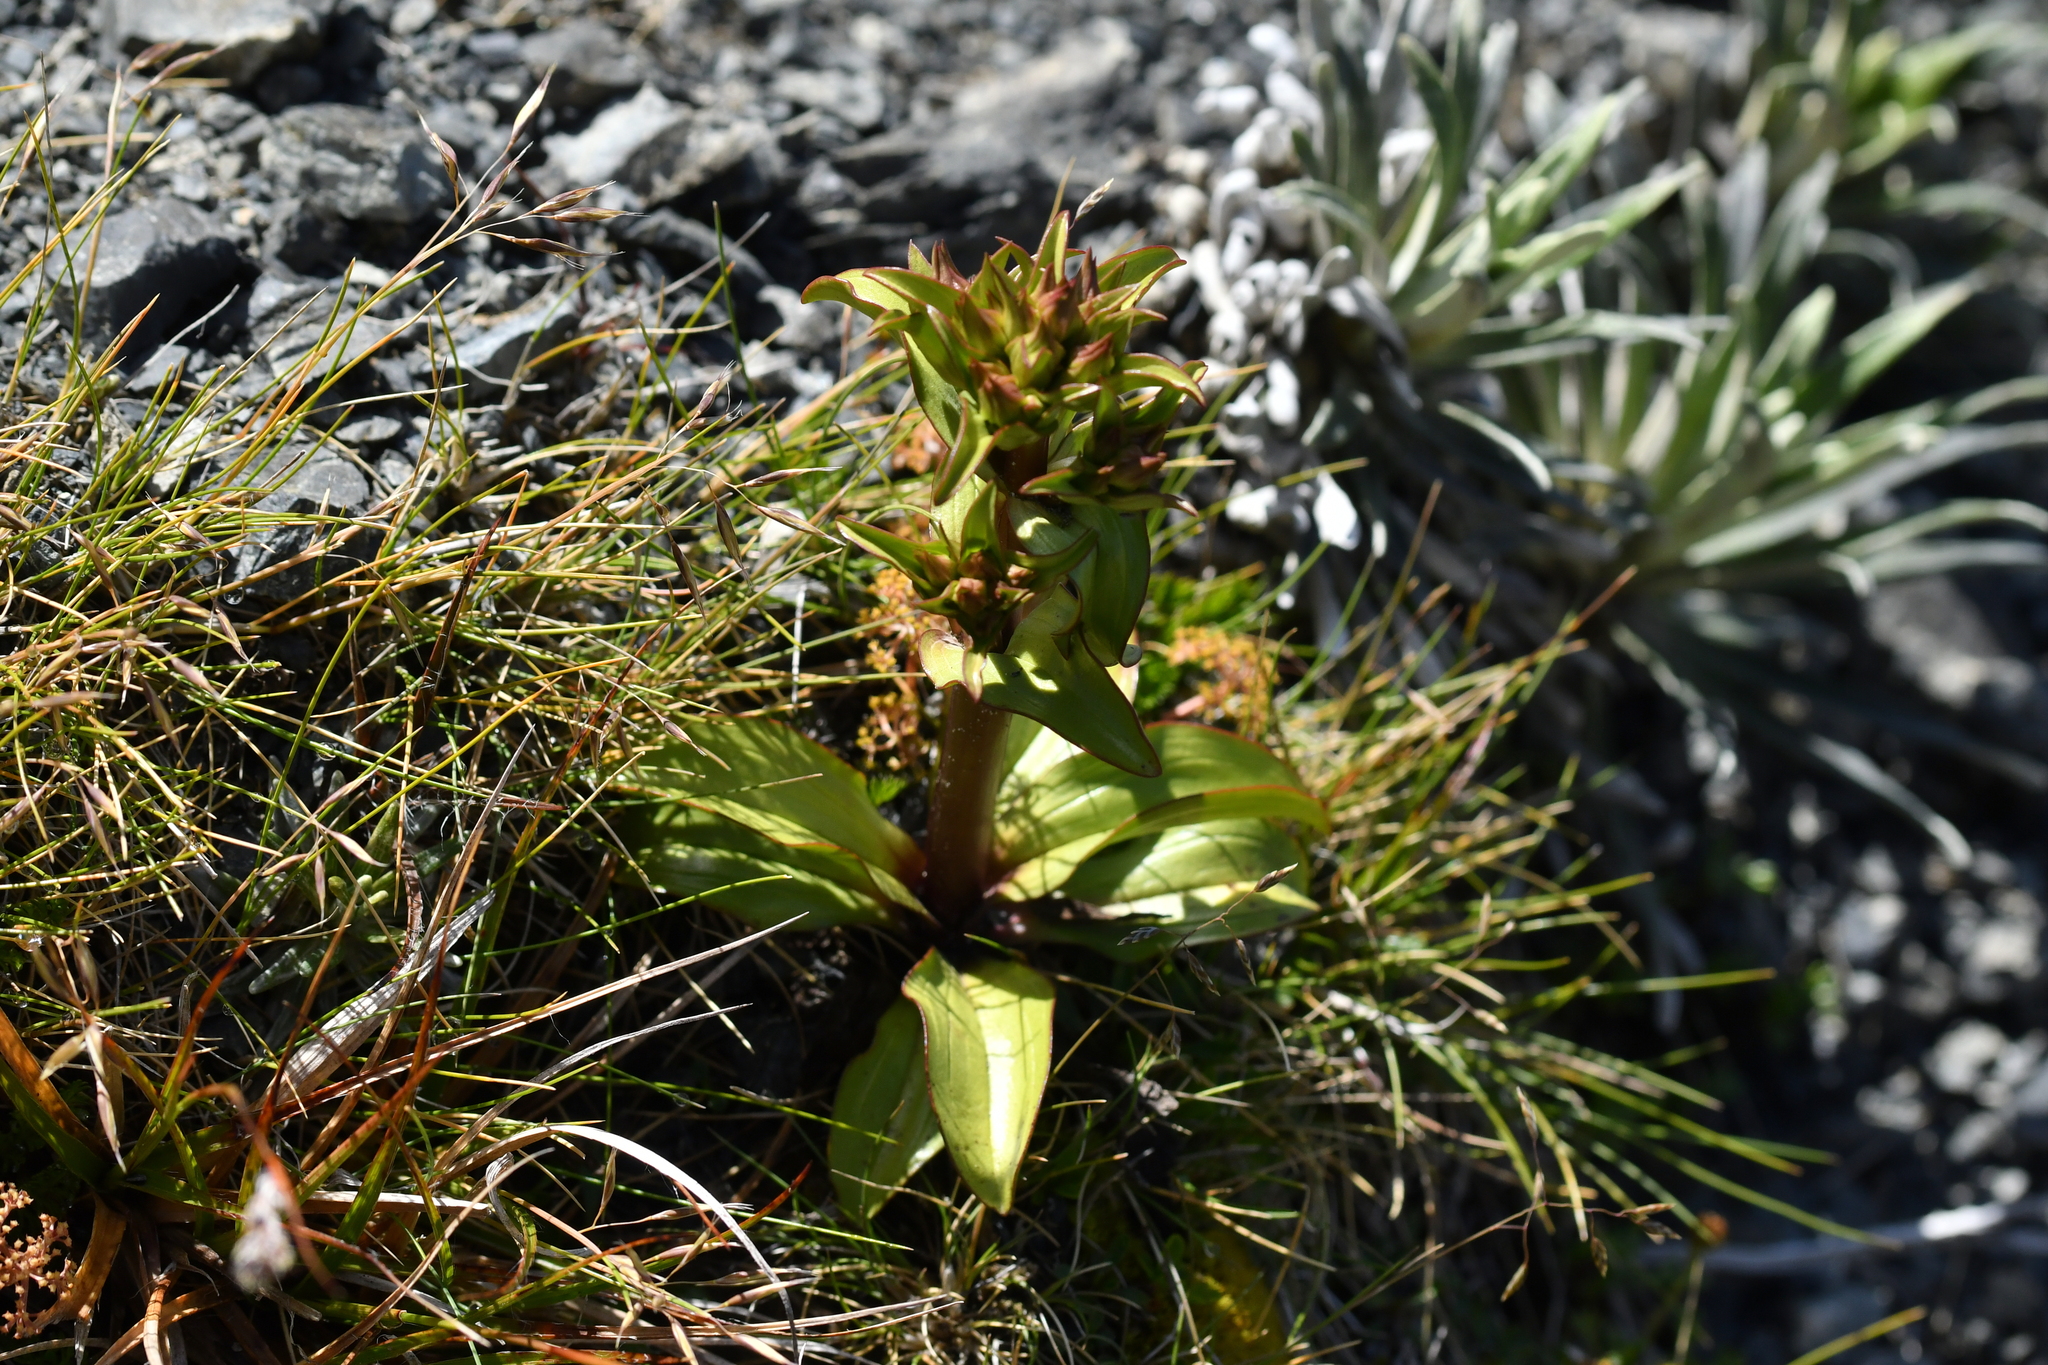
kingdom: Plantae
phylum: Tracheophyta
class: Magnoliopsida
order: Gentianales
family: Gentianaceae
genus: Gentianella
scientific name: Gentianella corymbifera
